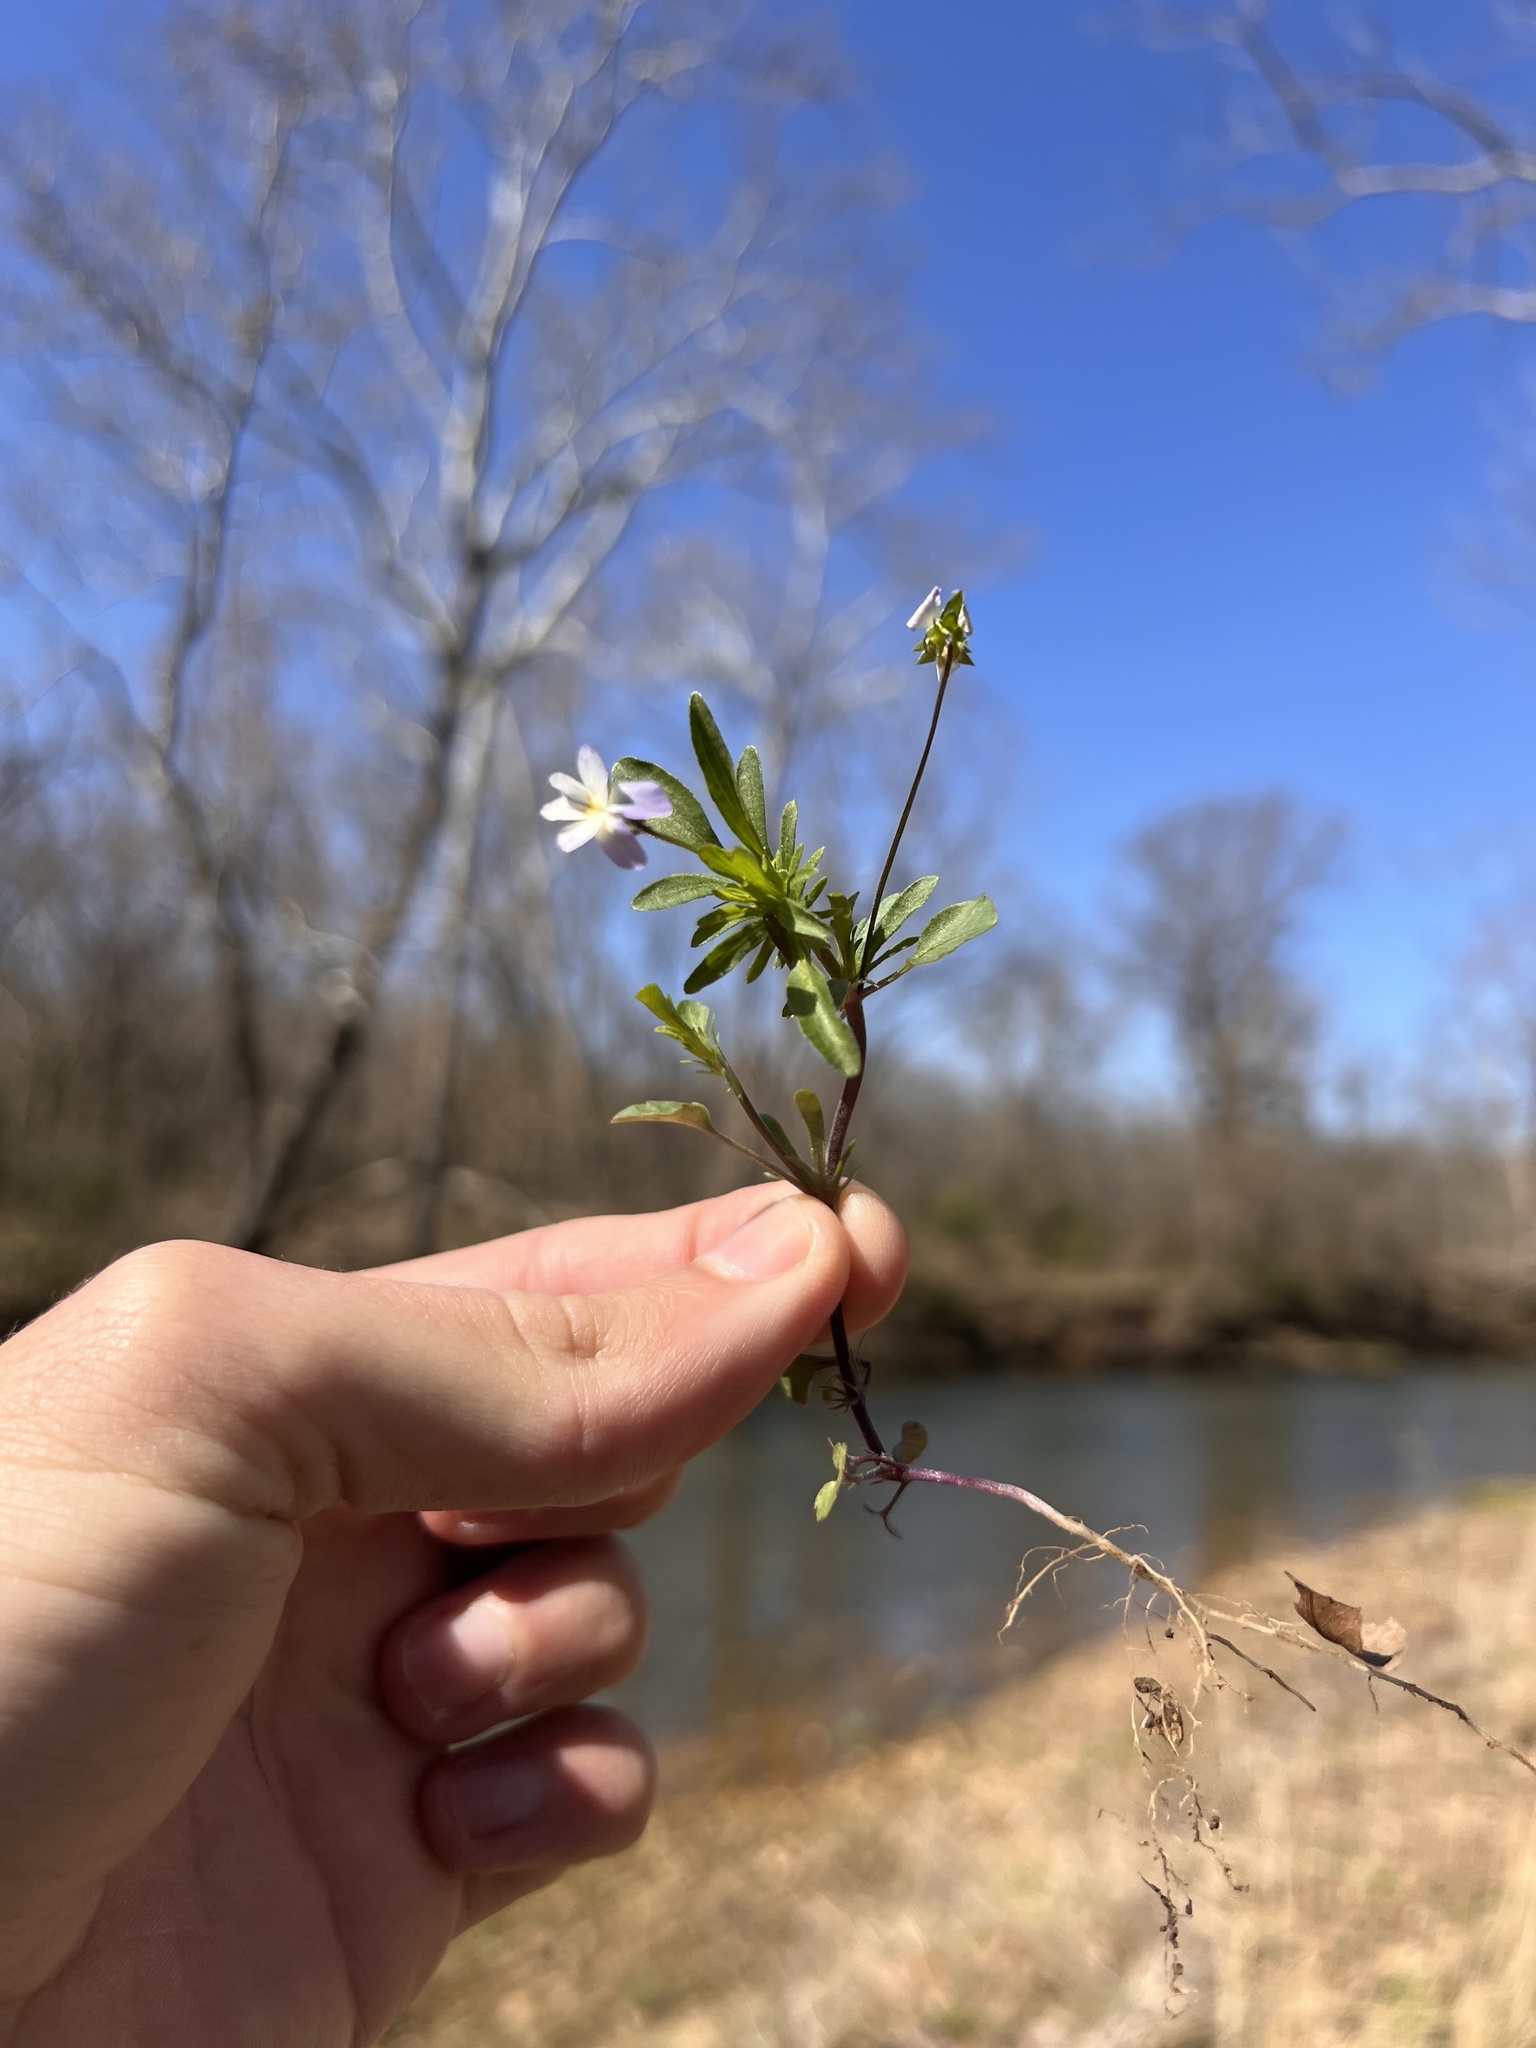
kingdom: Plantae
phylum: Tracheophyta
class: Magnoliopsida
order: Malpighiales
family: Violaceae
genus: Viola
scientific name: Viola rafinesquei
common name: American field pansy
